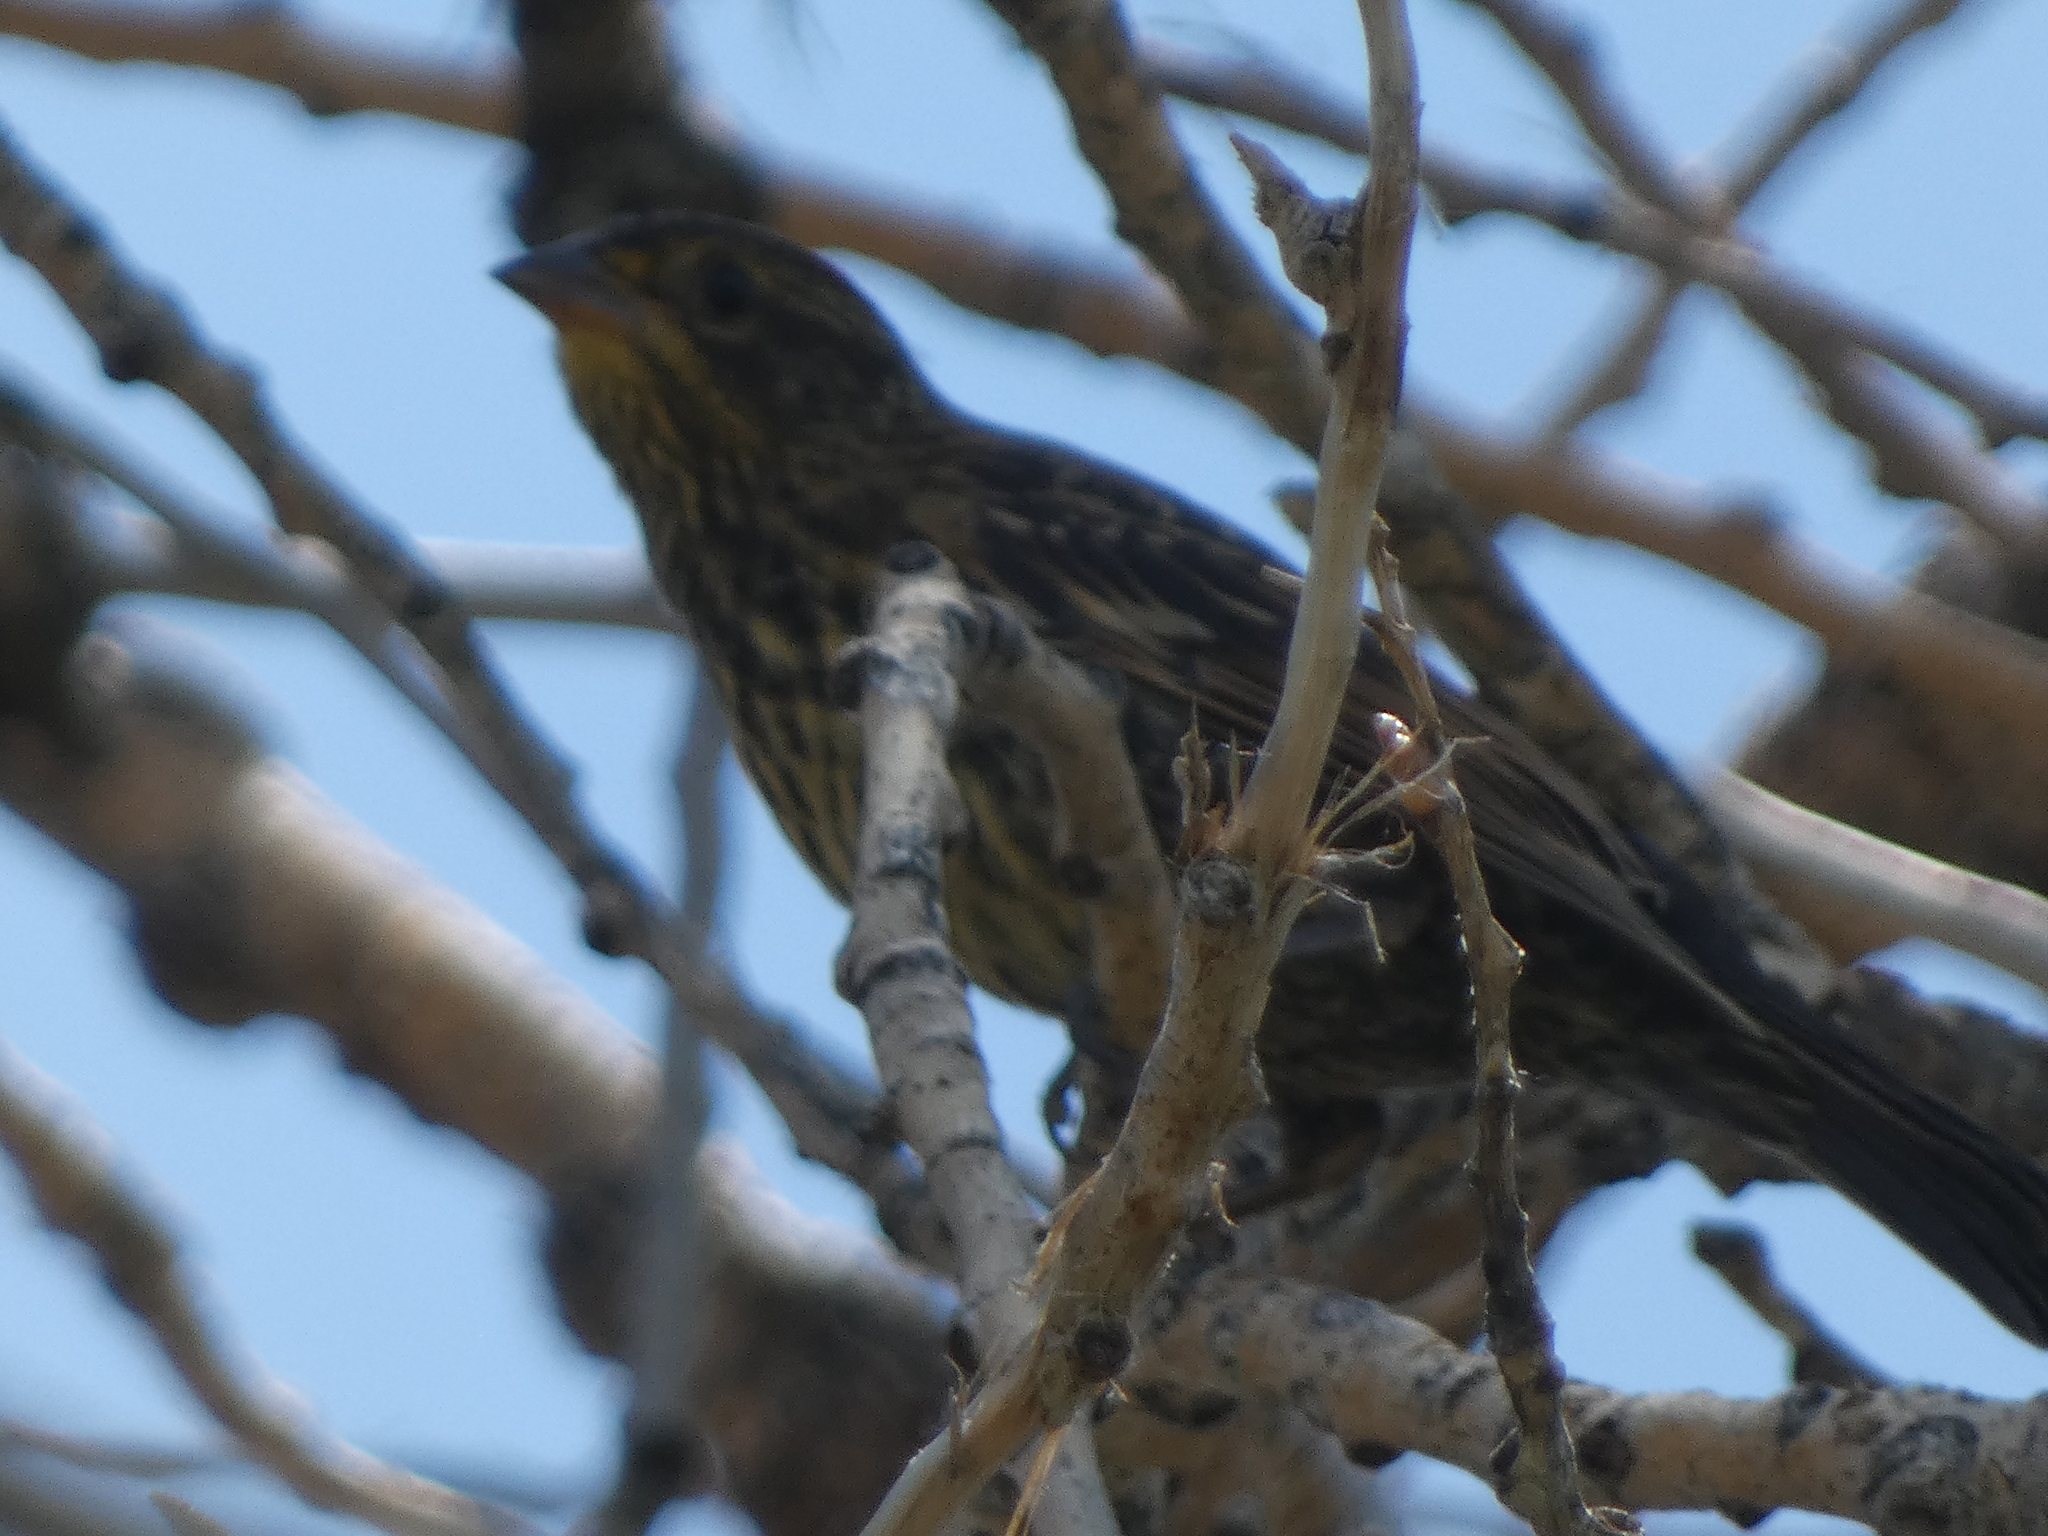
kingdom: Animalia
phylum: Chordata
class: Aves
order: Passeriformes
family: Icteridae
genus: Agelaius
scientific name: Agelaius phoeniceus
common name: Red-winged blackbird
